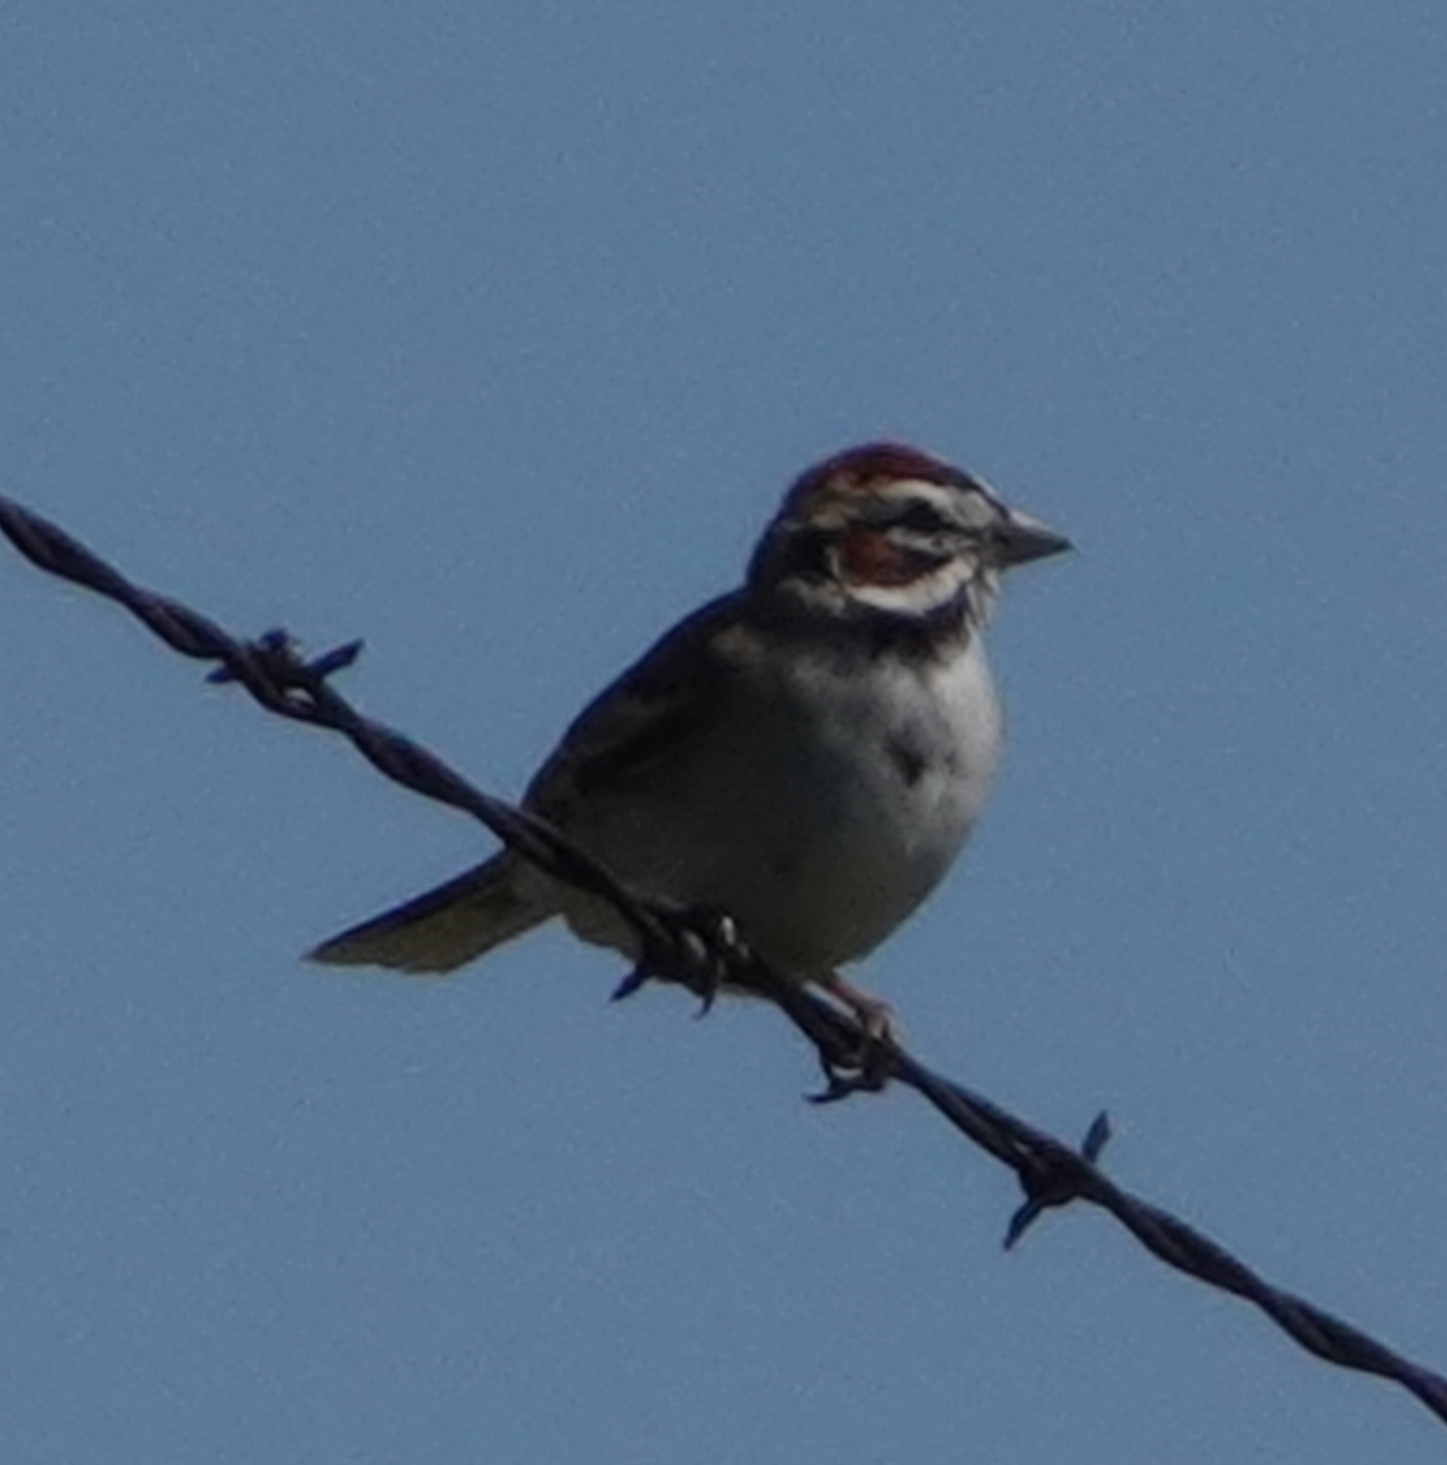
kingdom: Animalia
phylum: Chordata
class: Aves
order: Passeriformes
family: Passerellidae
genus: Chondestes
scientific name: Chondestes grammacus
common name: Lark sparrow
